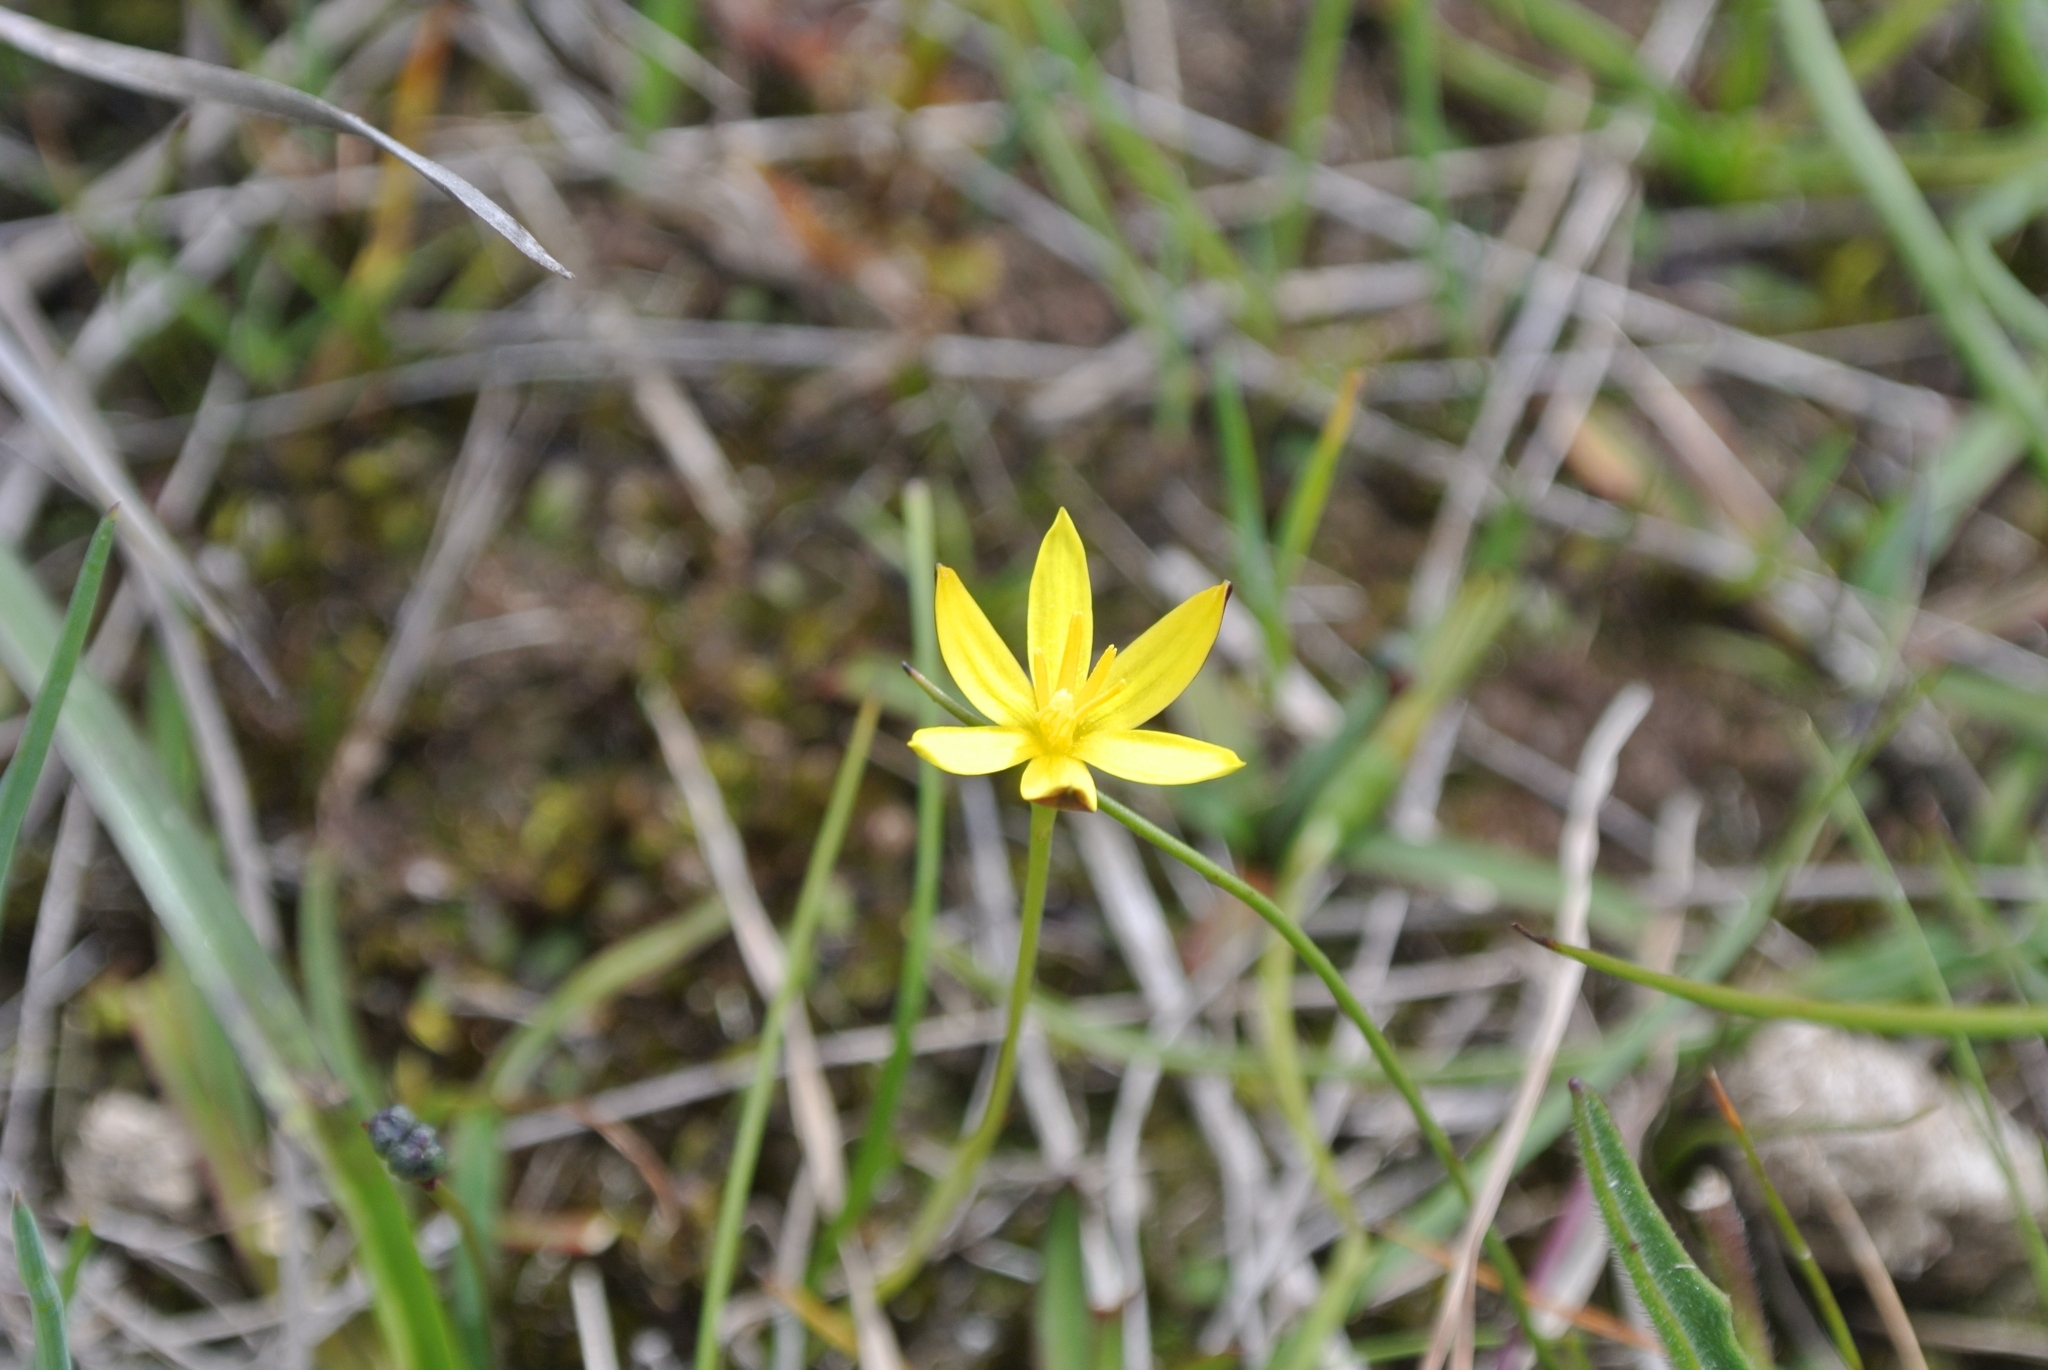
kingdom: Plantae
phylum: Tracheophyta
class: Liliopsida
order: Asparagales
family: Hypoxidaceae
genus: Pauridia
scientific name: Pauridia vaginata
